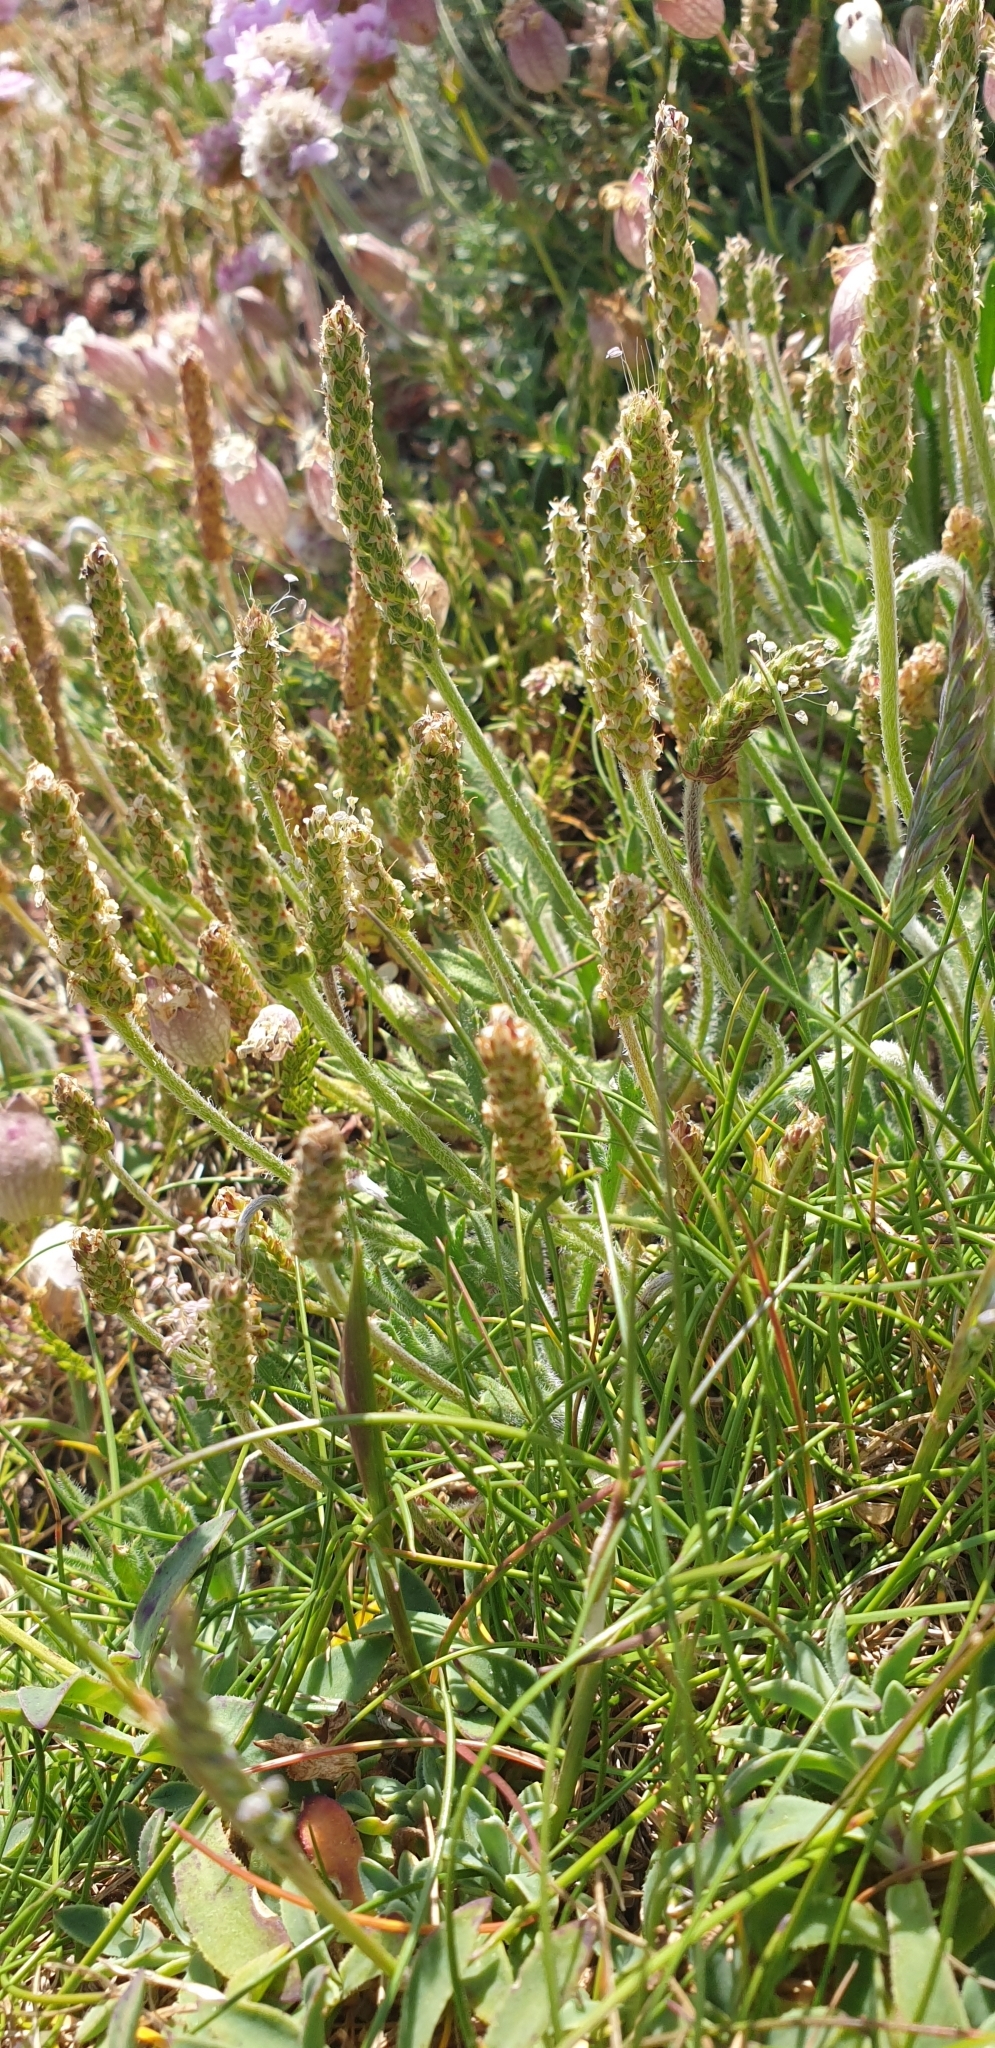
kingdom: Plantae
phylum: Tracheophyta
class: Magnoliopsida
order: Lamiales
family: Plantaginaceae
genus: Plantago
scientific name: Plantago coronopus
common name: Buck's-horn plantain
